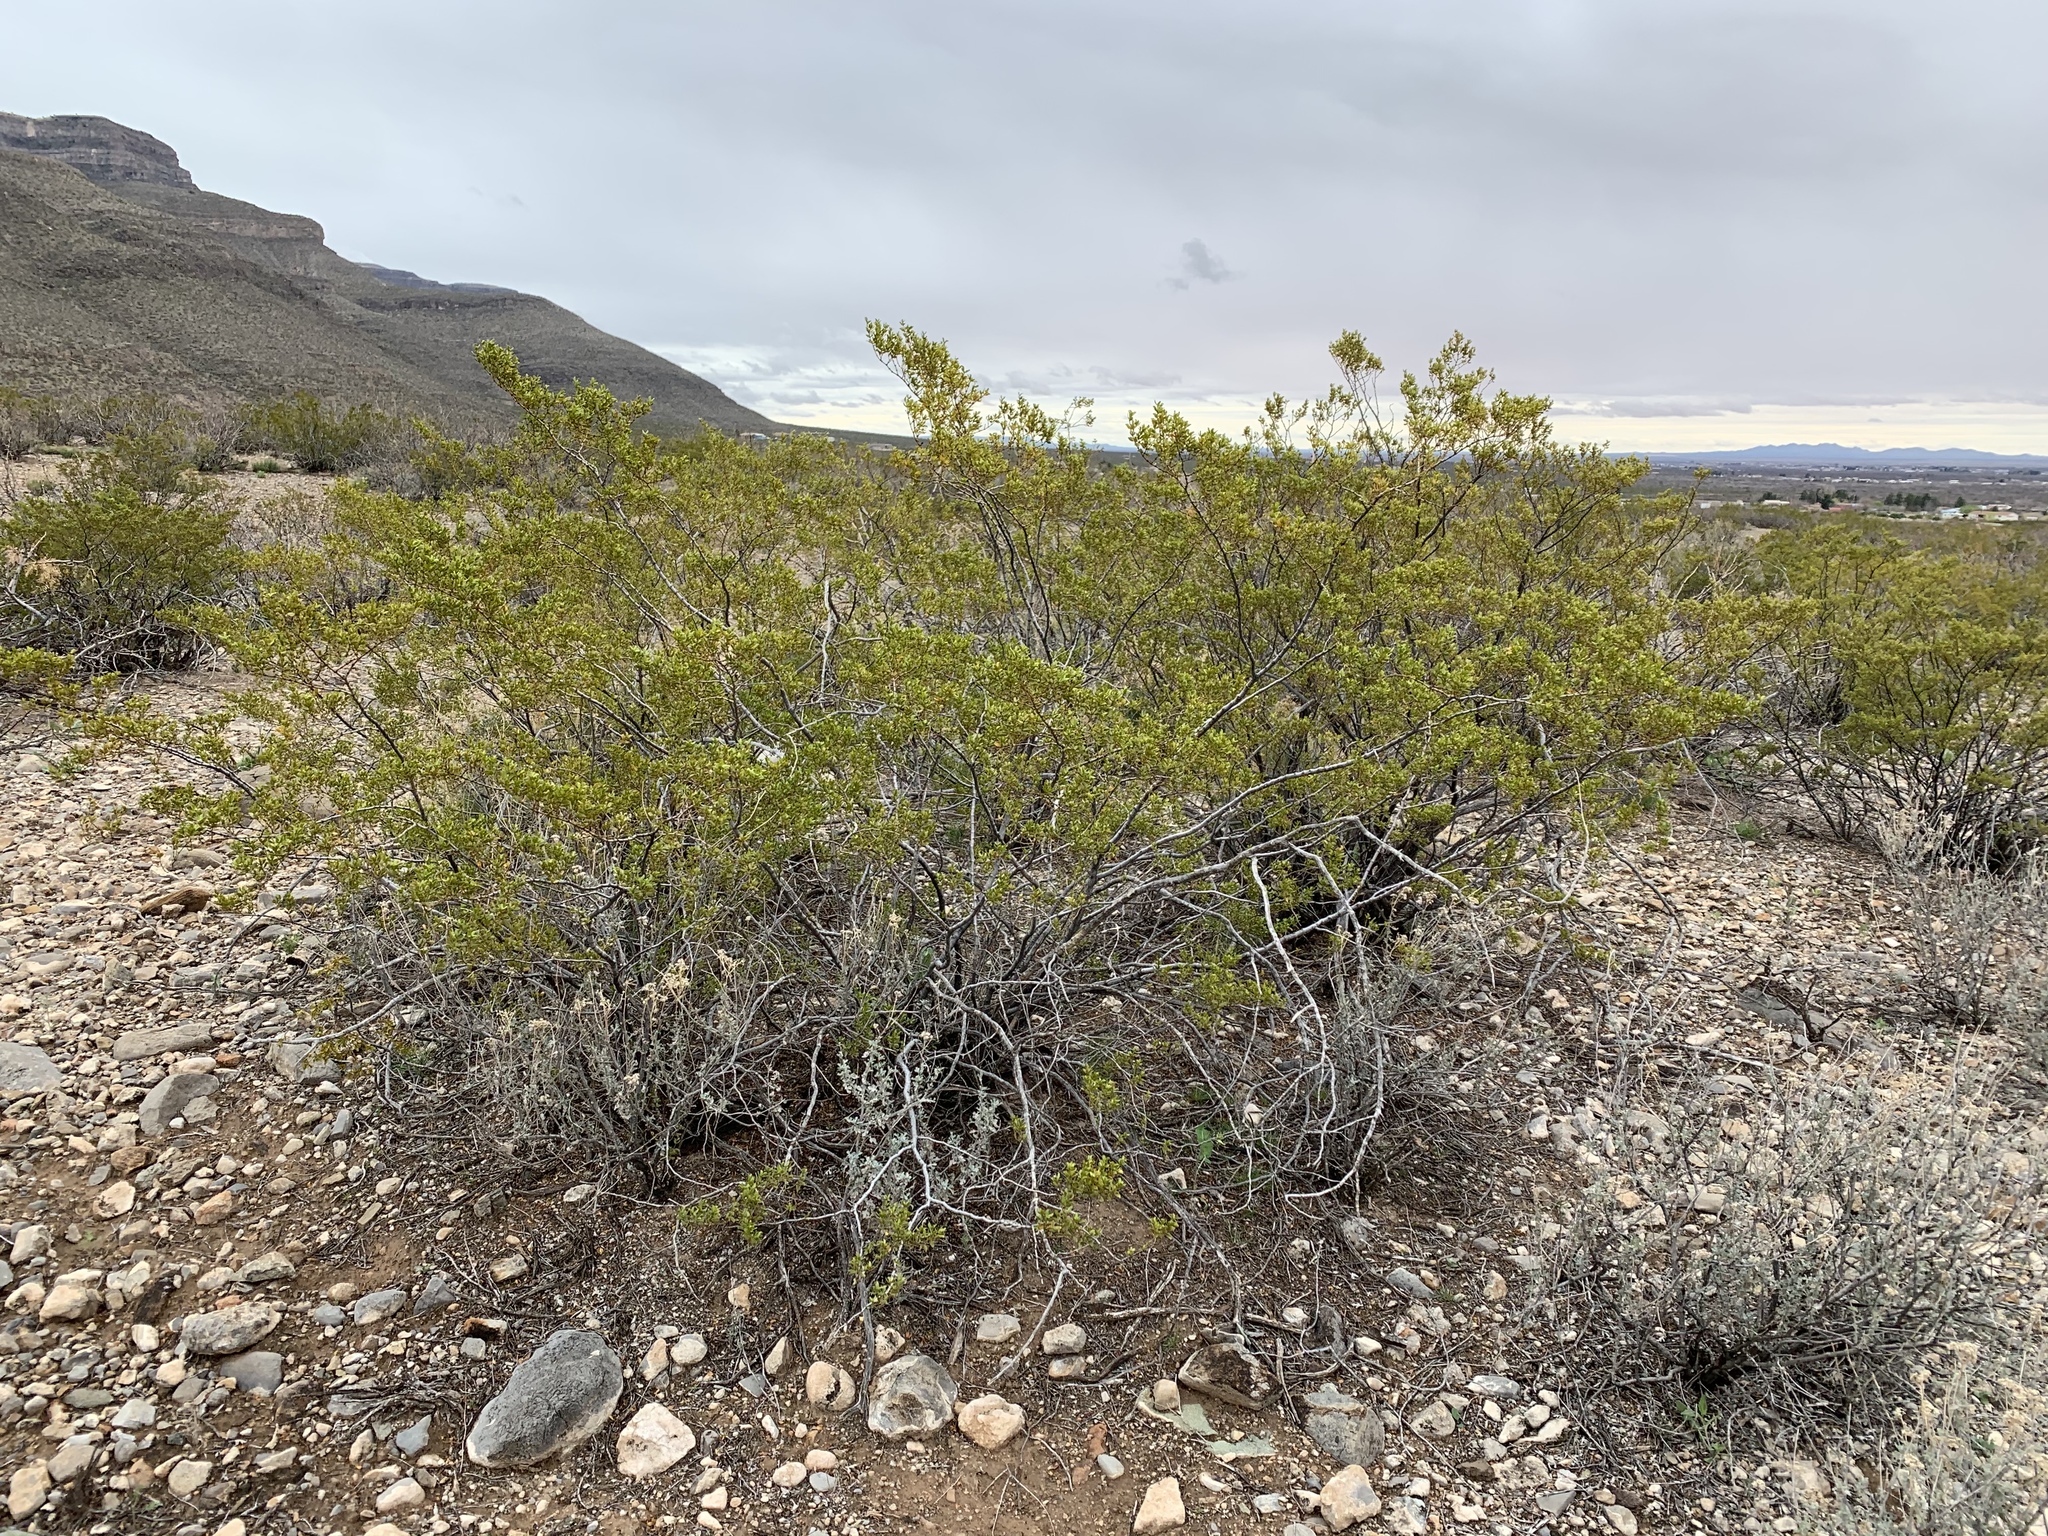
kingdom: Plantae
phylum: Tracheophyta
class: Magnoliopsida
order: Zygophyllales
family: Zygophyllaceae
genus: Larrea
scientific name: Larrea tridentata
